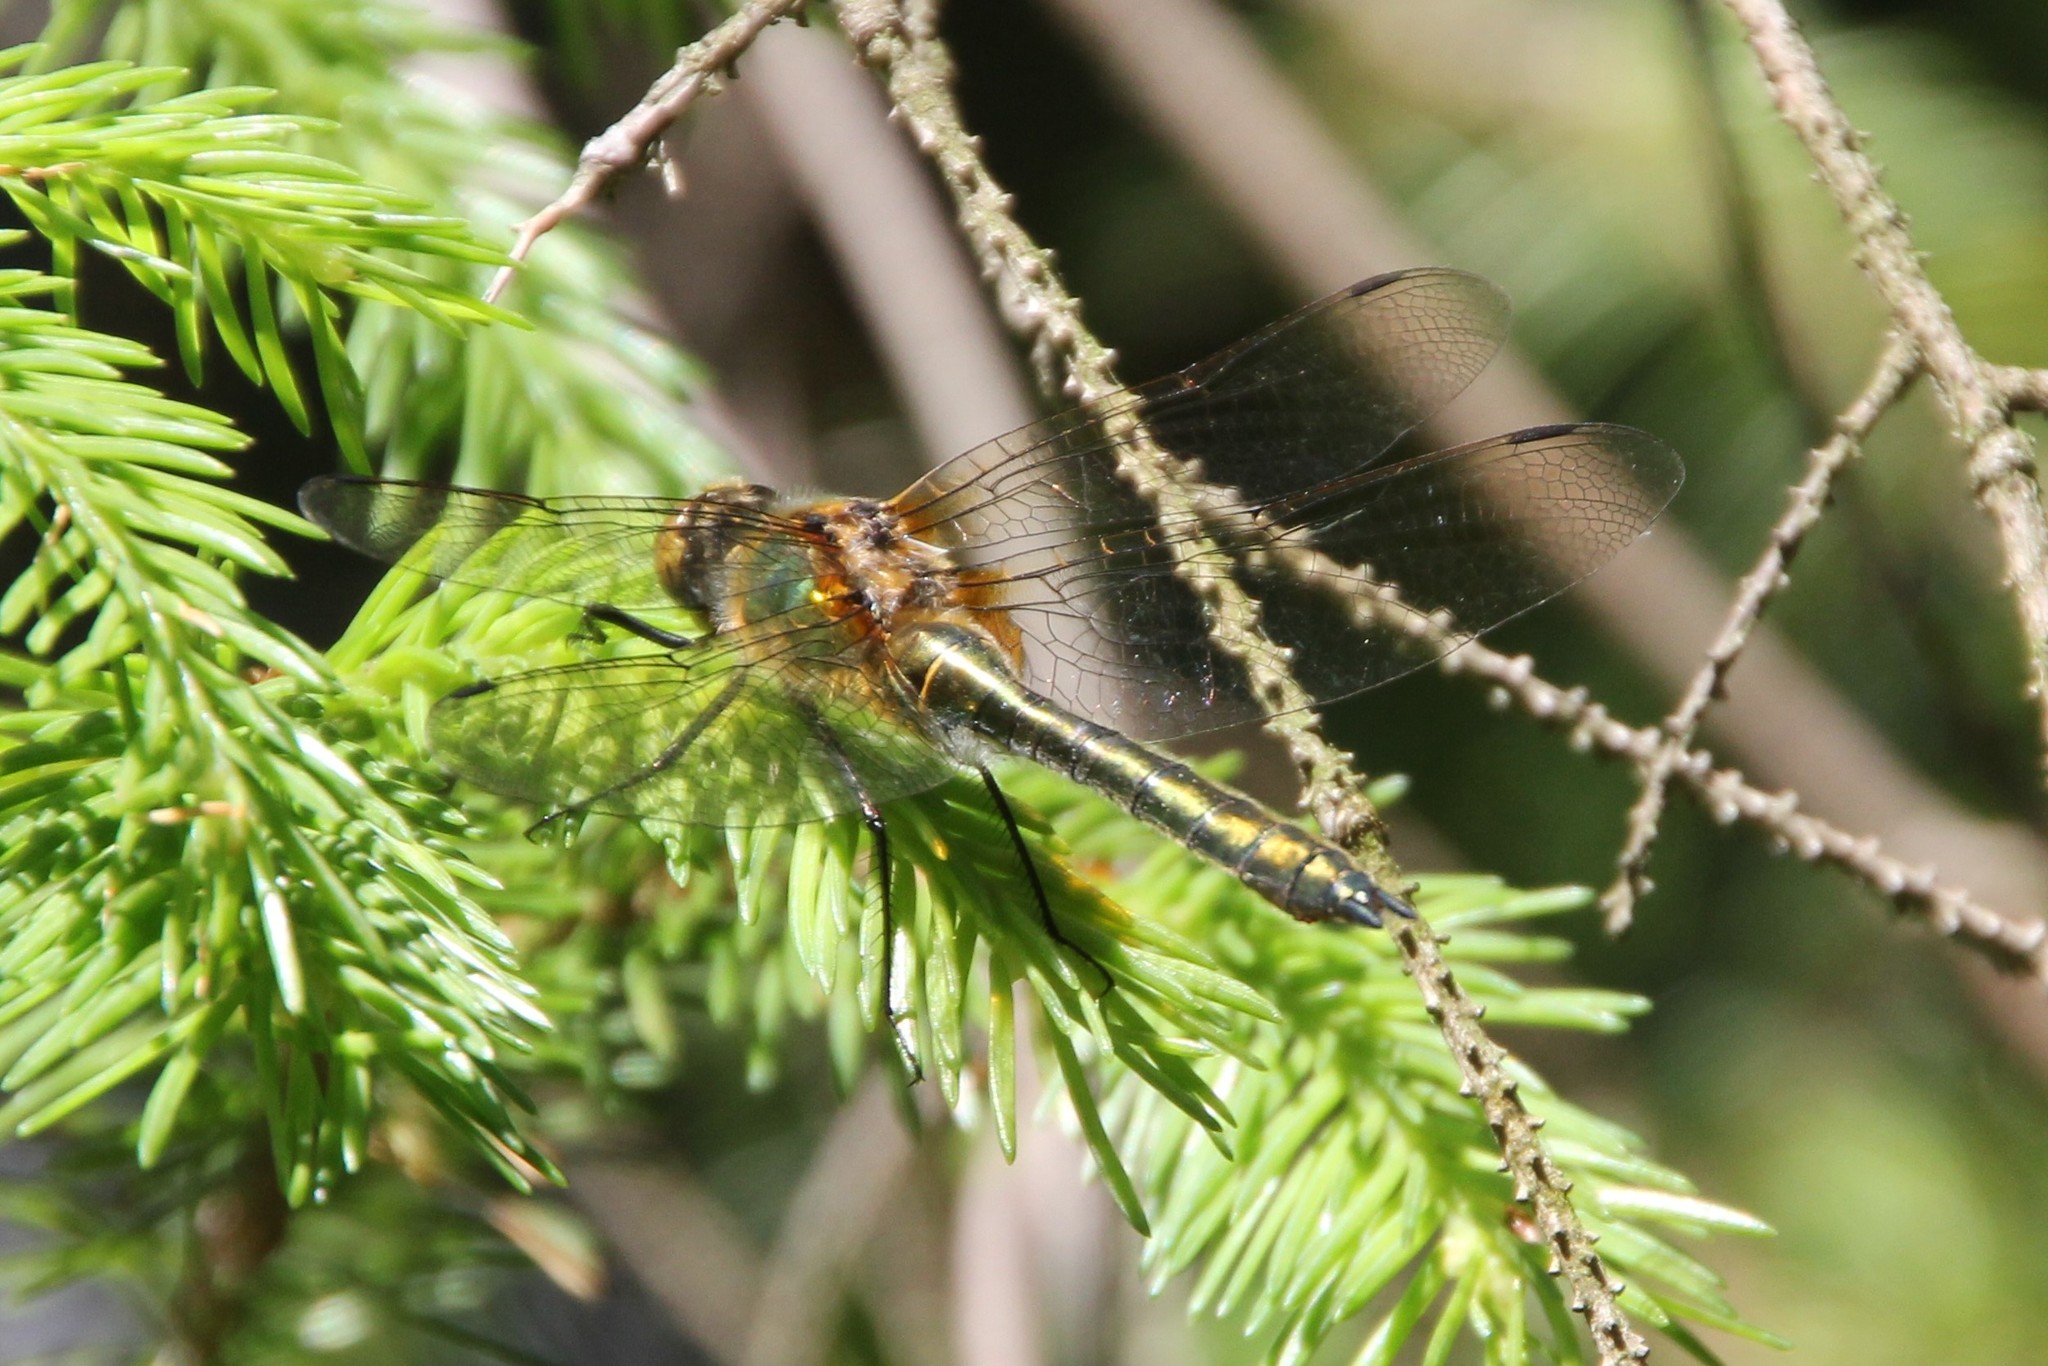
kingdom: Animalia
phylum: Arthropoda
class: Insecta
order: Odonata
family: Corduliidae
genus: Cordulia
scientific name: Cordulia aenea
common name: Downy emerald
